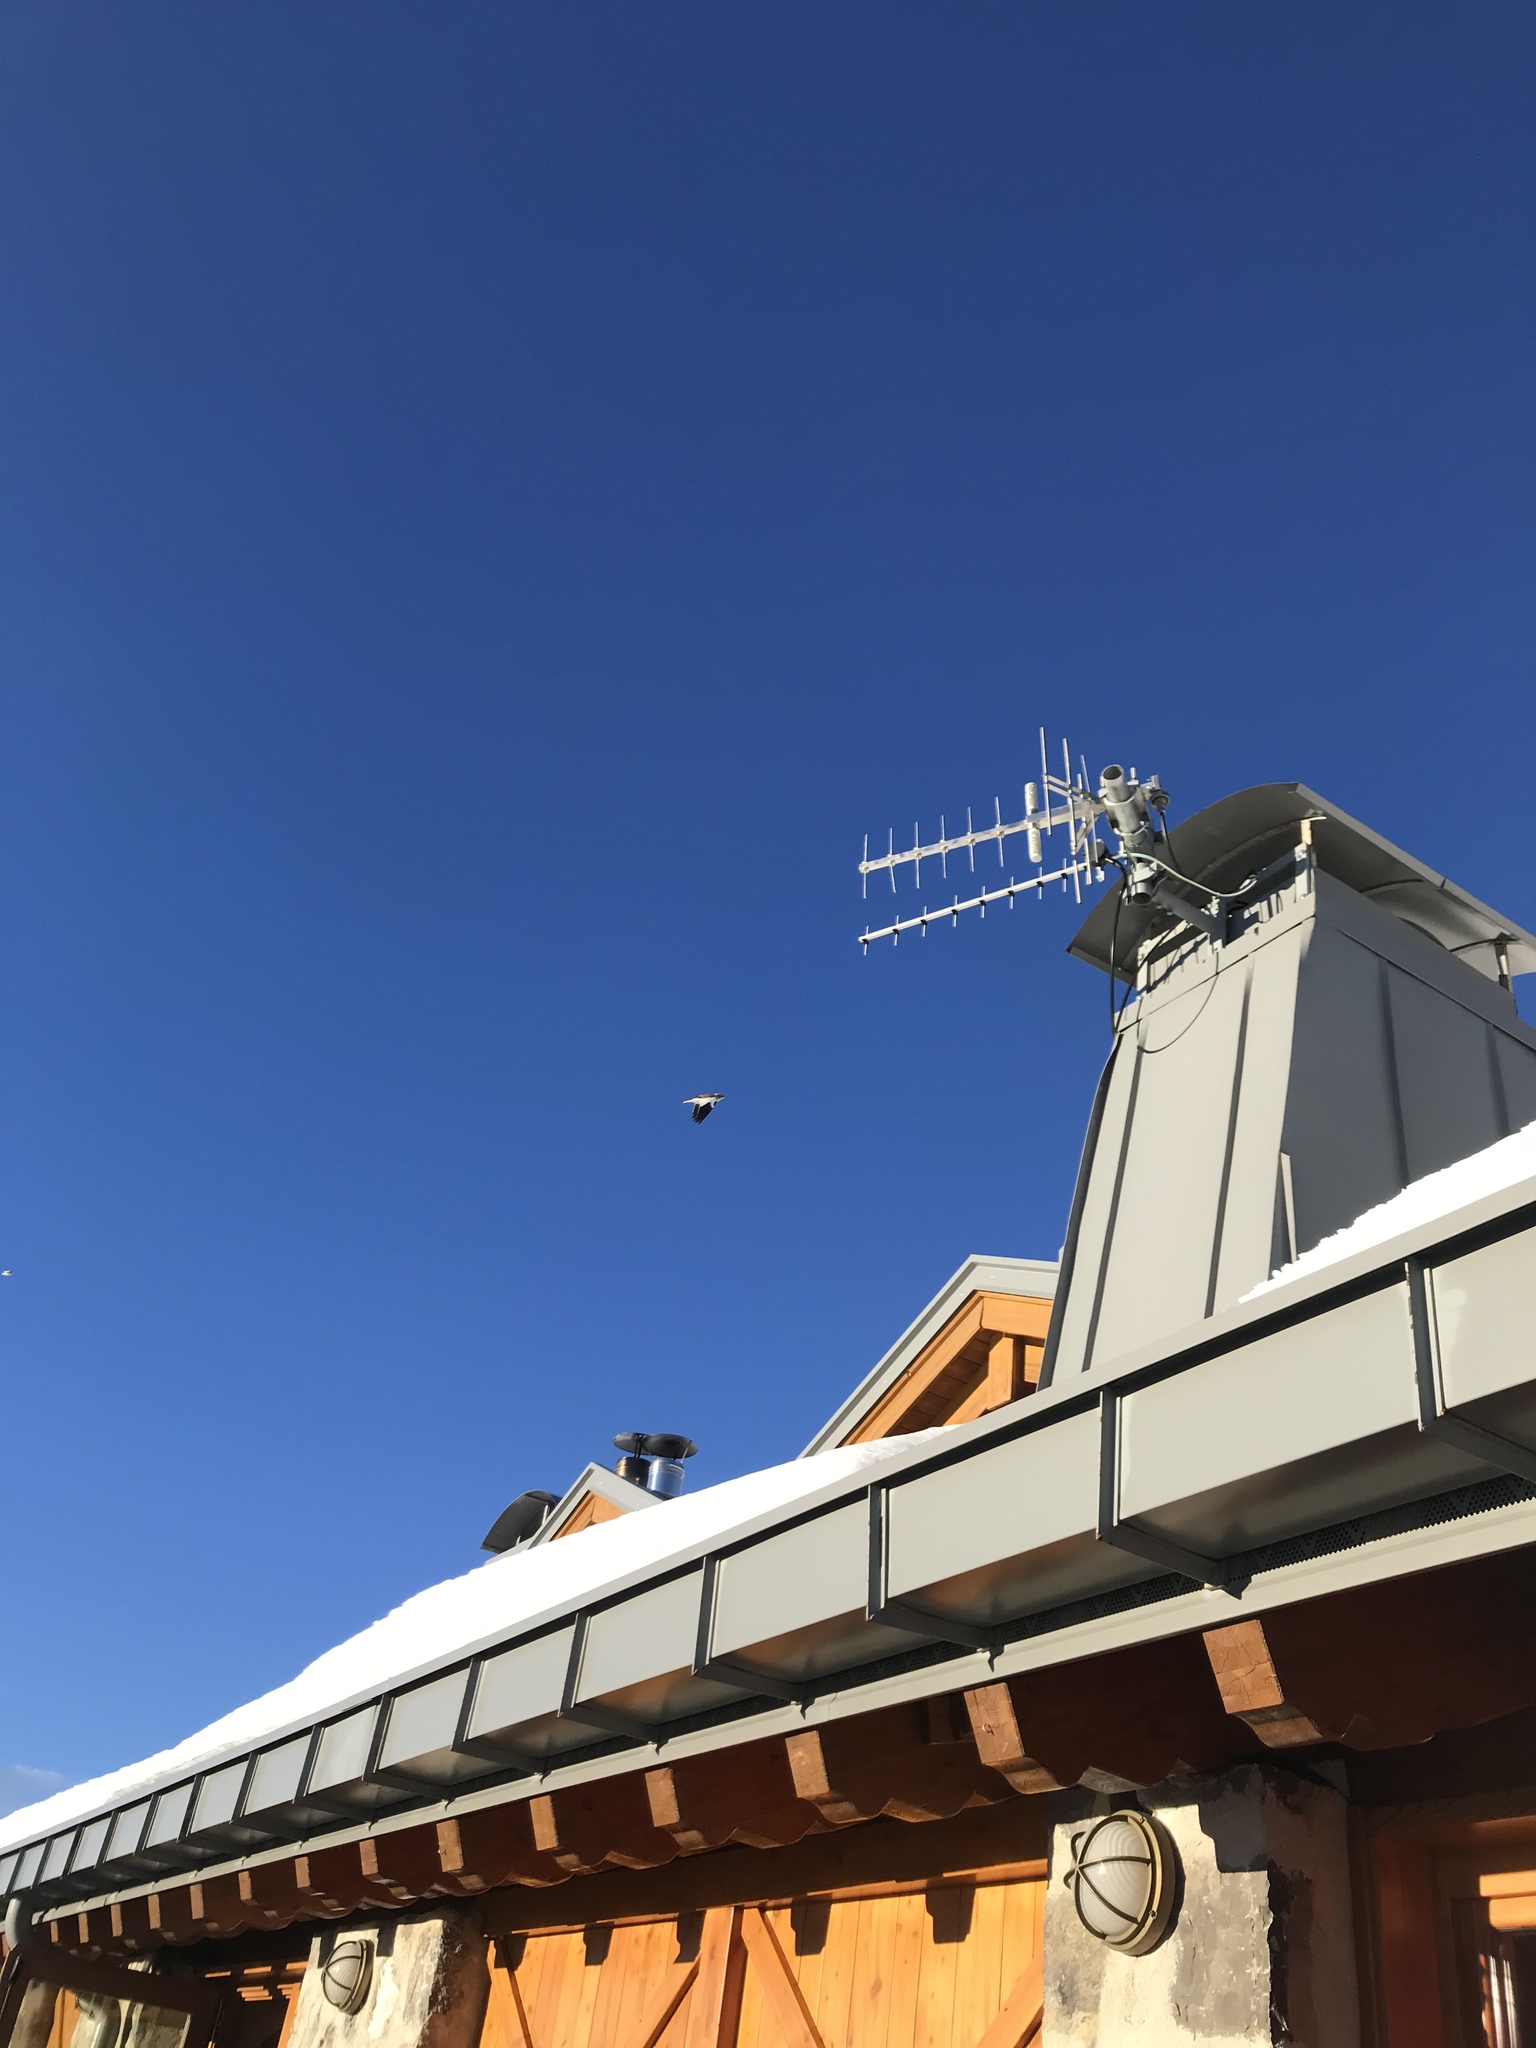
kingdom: Animalia
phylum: Chordata
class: Aves
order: Passeriformes
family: Passeridae
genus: Montifringilla
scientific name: Montifringilla nivalis
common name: White-winged snowfinch
